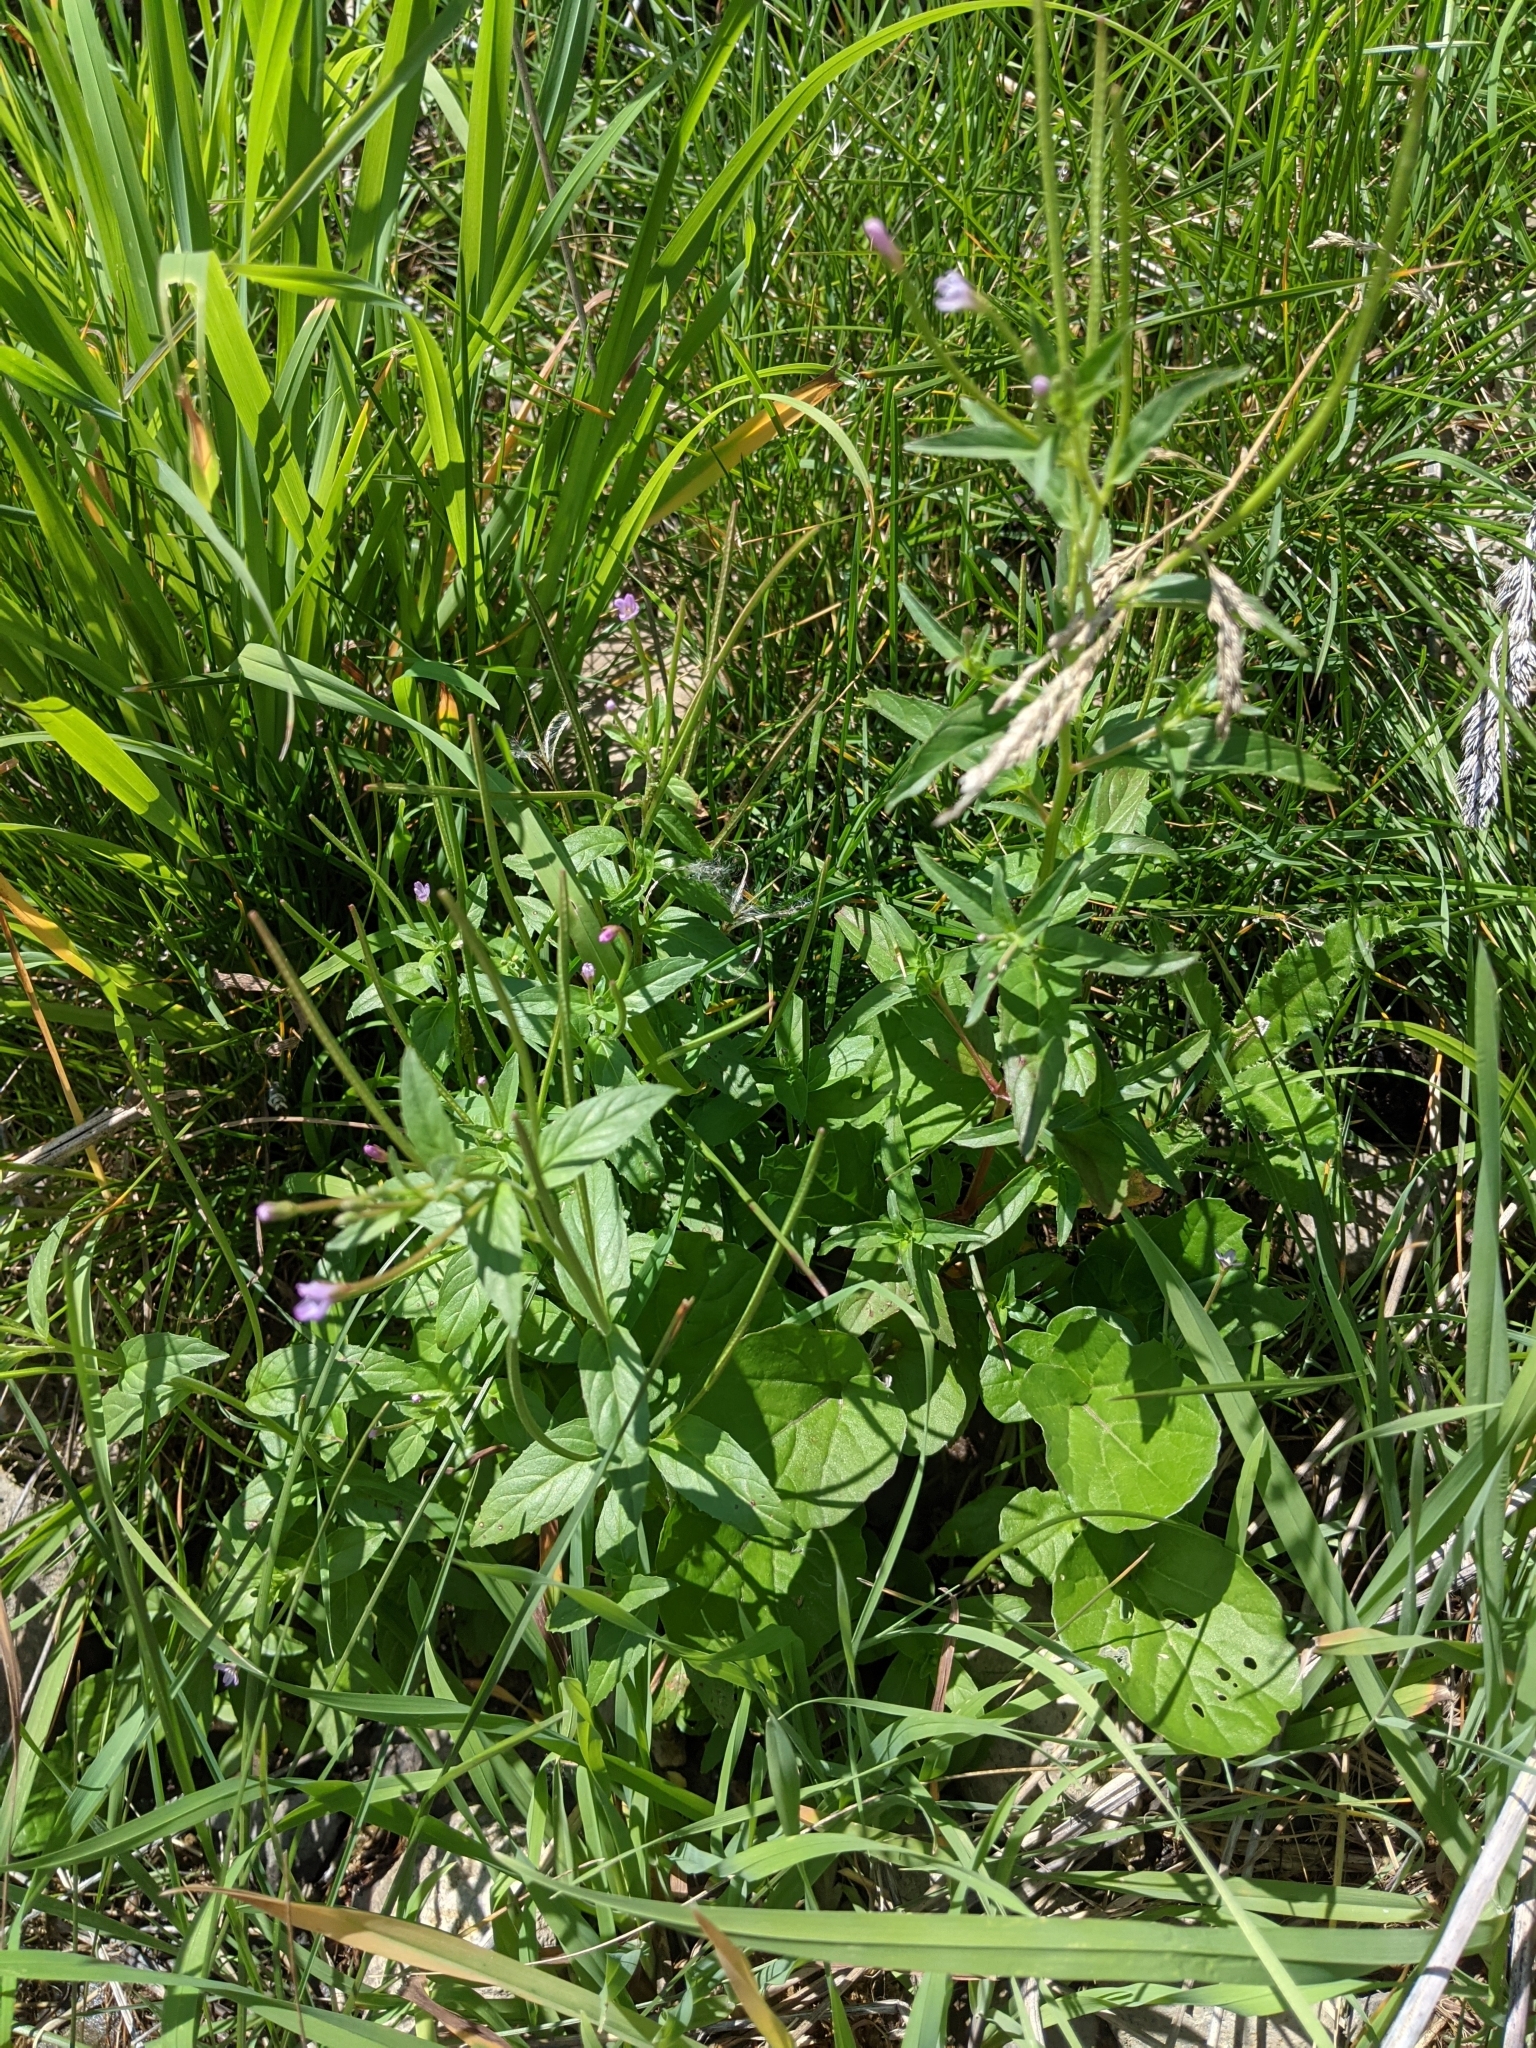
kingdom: Plantae
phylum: Tracheophyta
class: Magnoliopsida
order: Myrtales
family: Onagraceae
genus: Epilobium
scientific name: Epilobium ciliatum
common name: American willowherb
